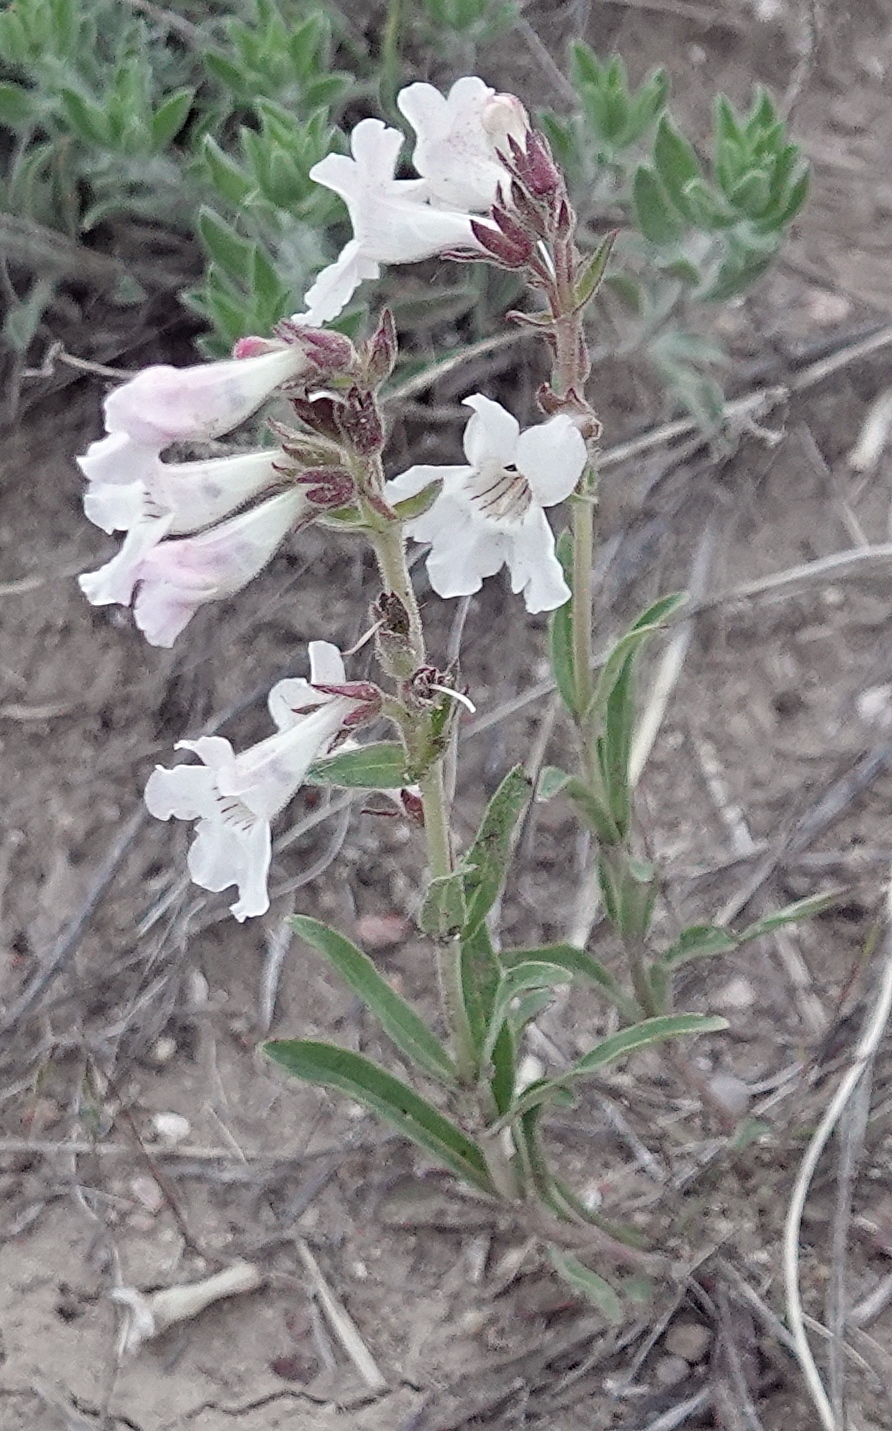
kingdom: Plantae
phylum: Tracheophyta
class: Magnoliopsida
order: Lamiales
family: Plantaginaceae
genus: Penstemon
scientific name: Penstemon albidus
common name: White beardtongue
